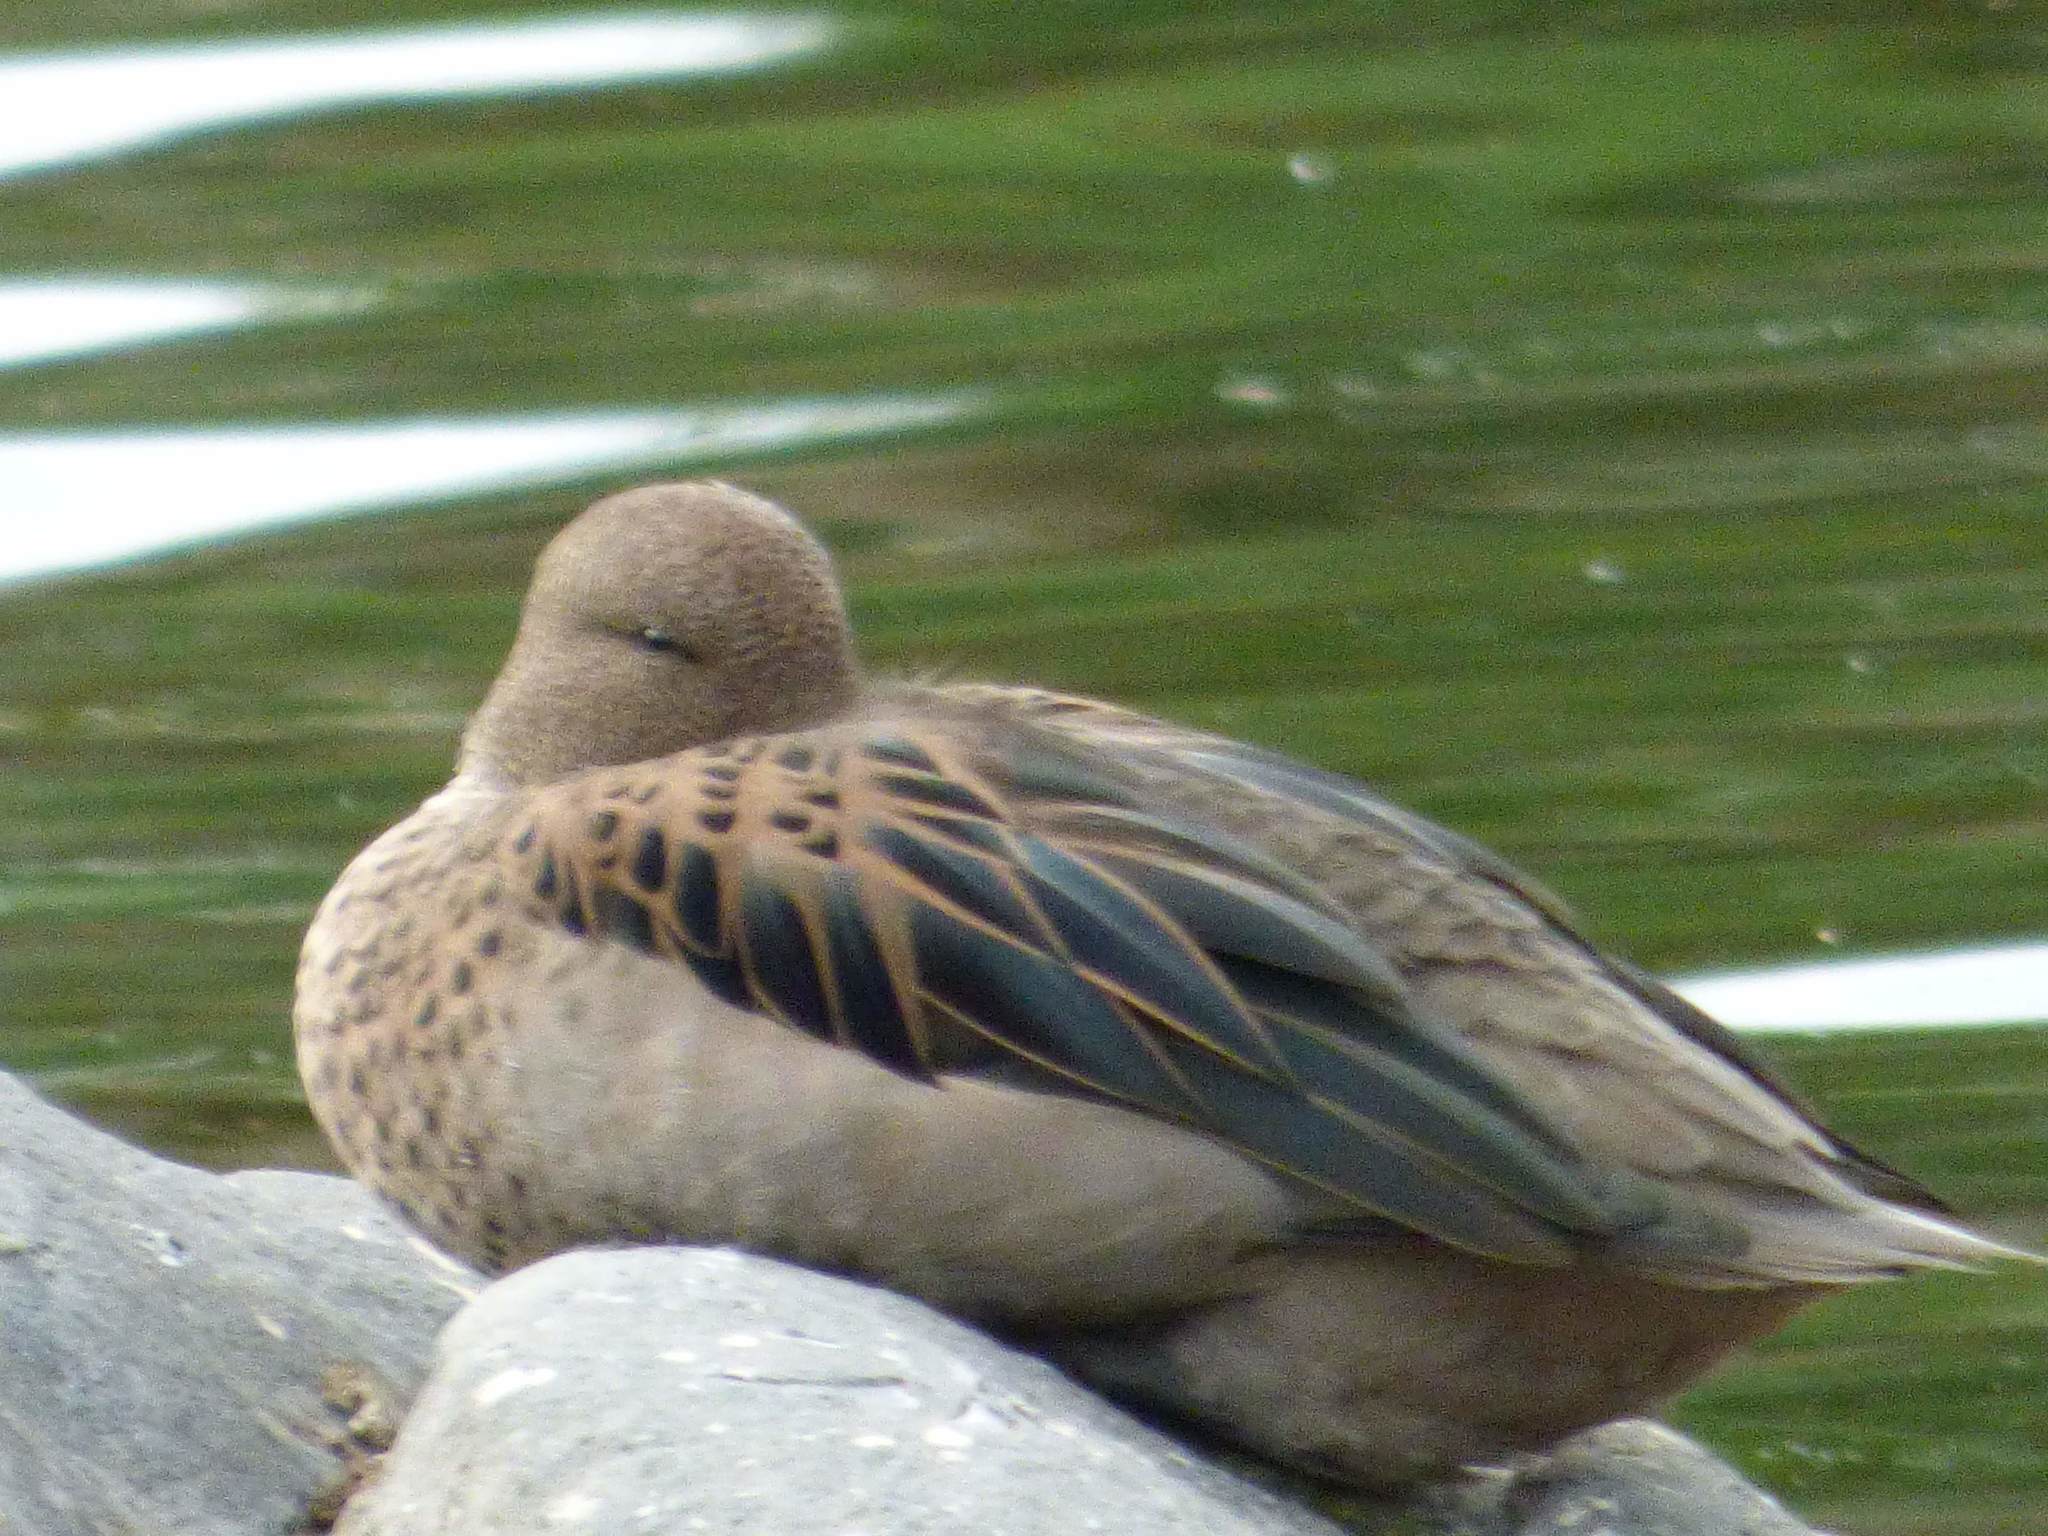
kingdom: Animalia
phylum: Chordata
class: Aves
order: Anseriformes
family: Anatidae
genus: Anas
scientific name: Anas flavirostris
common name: Yellow-billed teal
